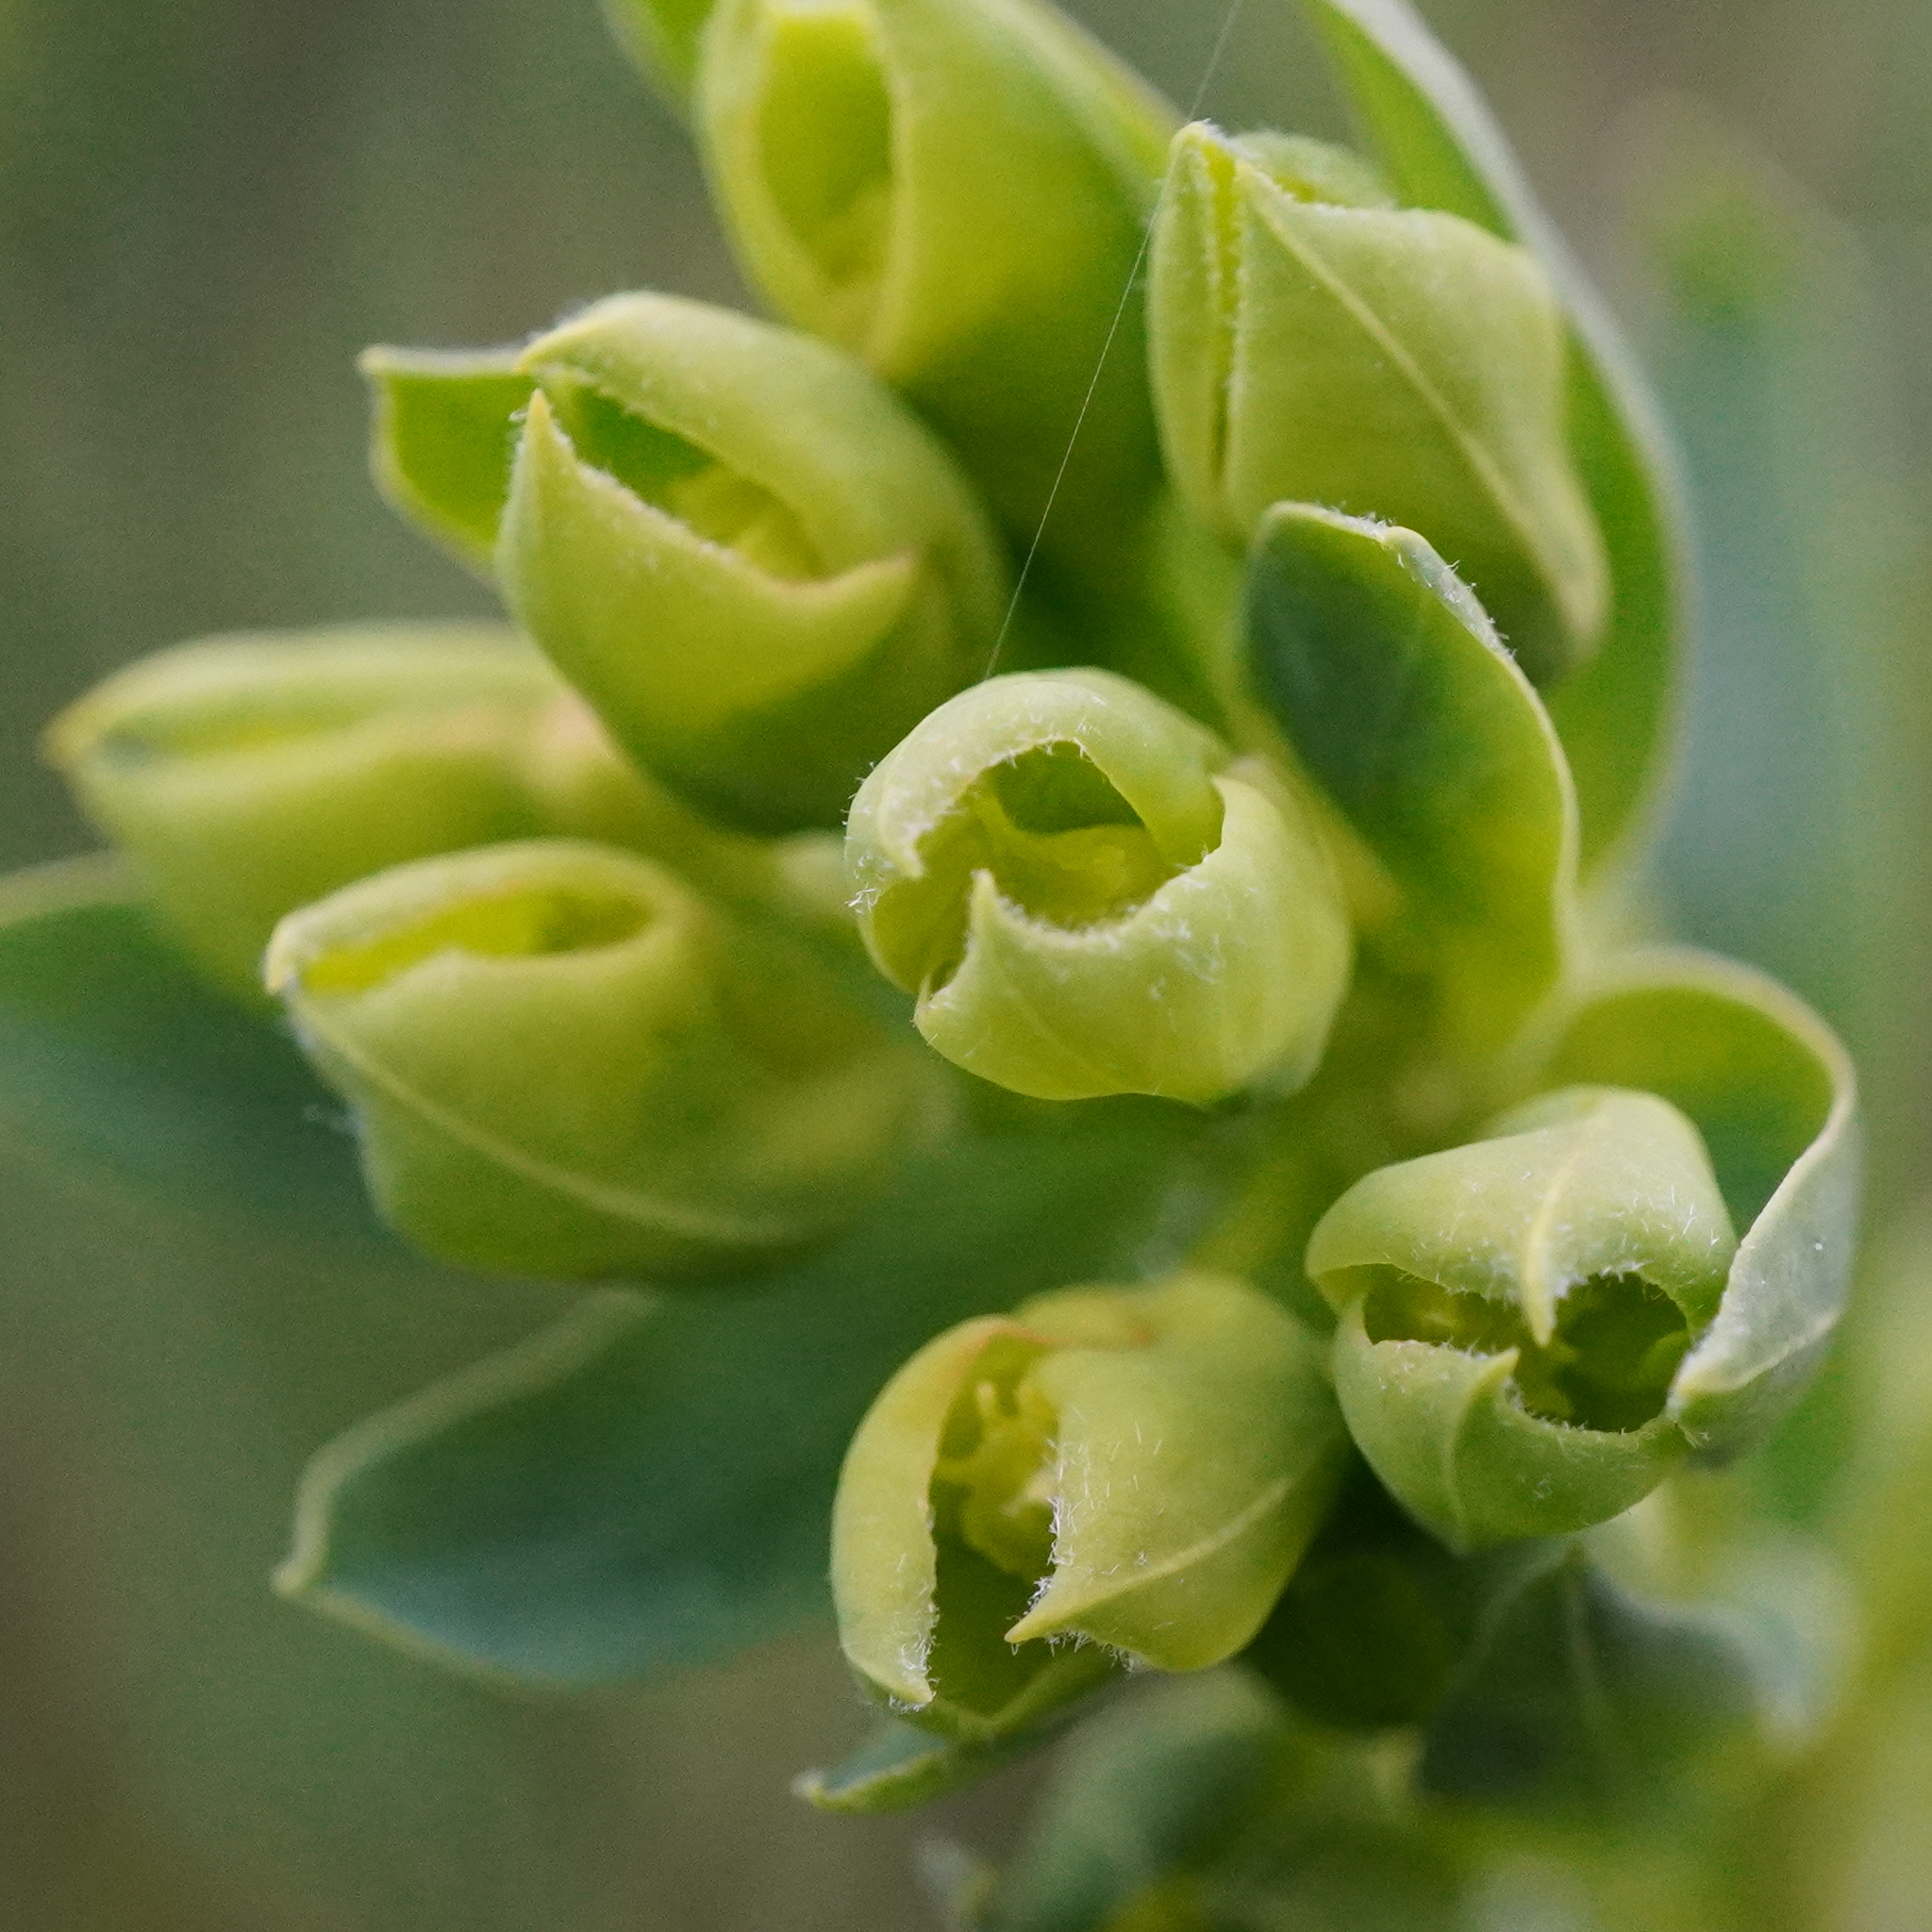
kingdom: Plantae
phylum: Tracheophyta
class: Magnoliopsida
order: Malpighiales
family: Euphorbiaceae
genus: Euphorbia
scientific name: Euphorbia virgata
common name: Leafy spurge
